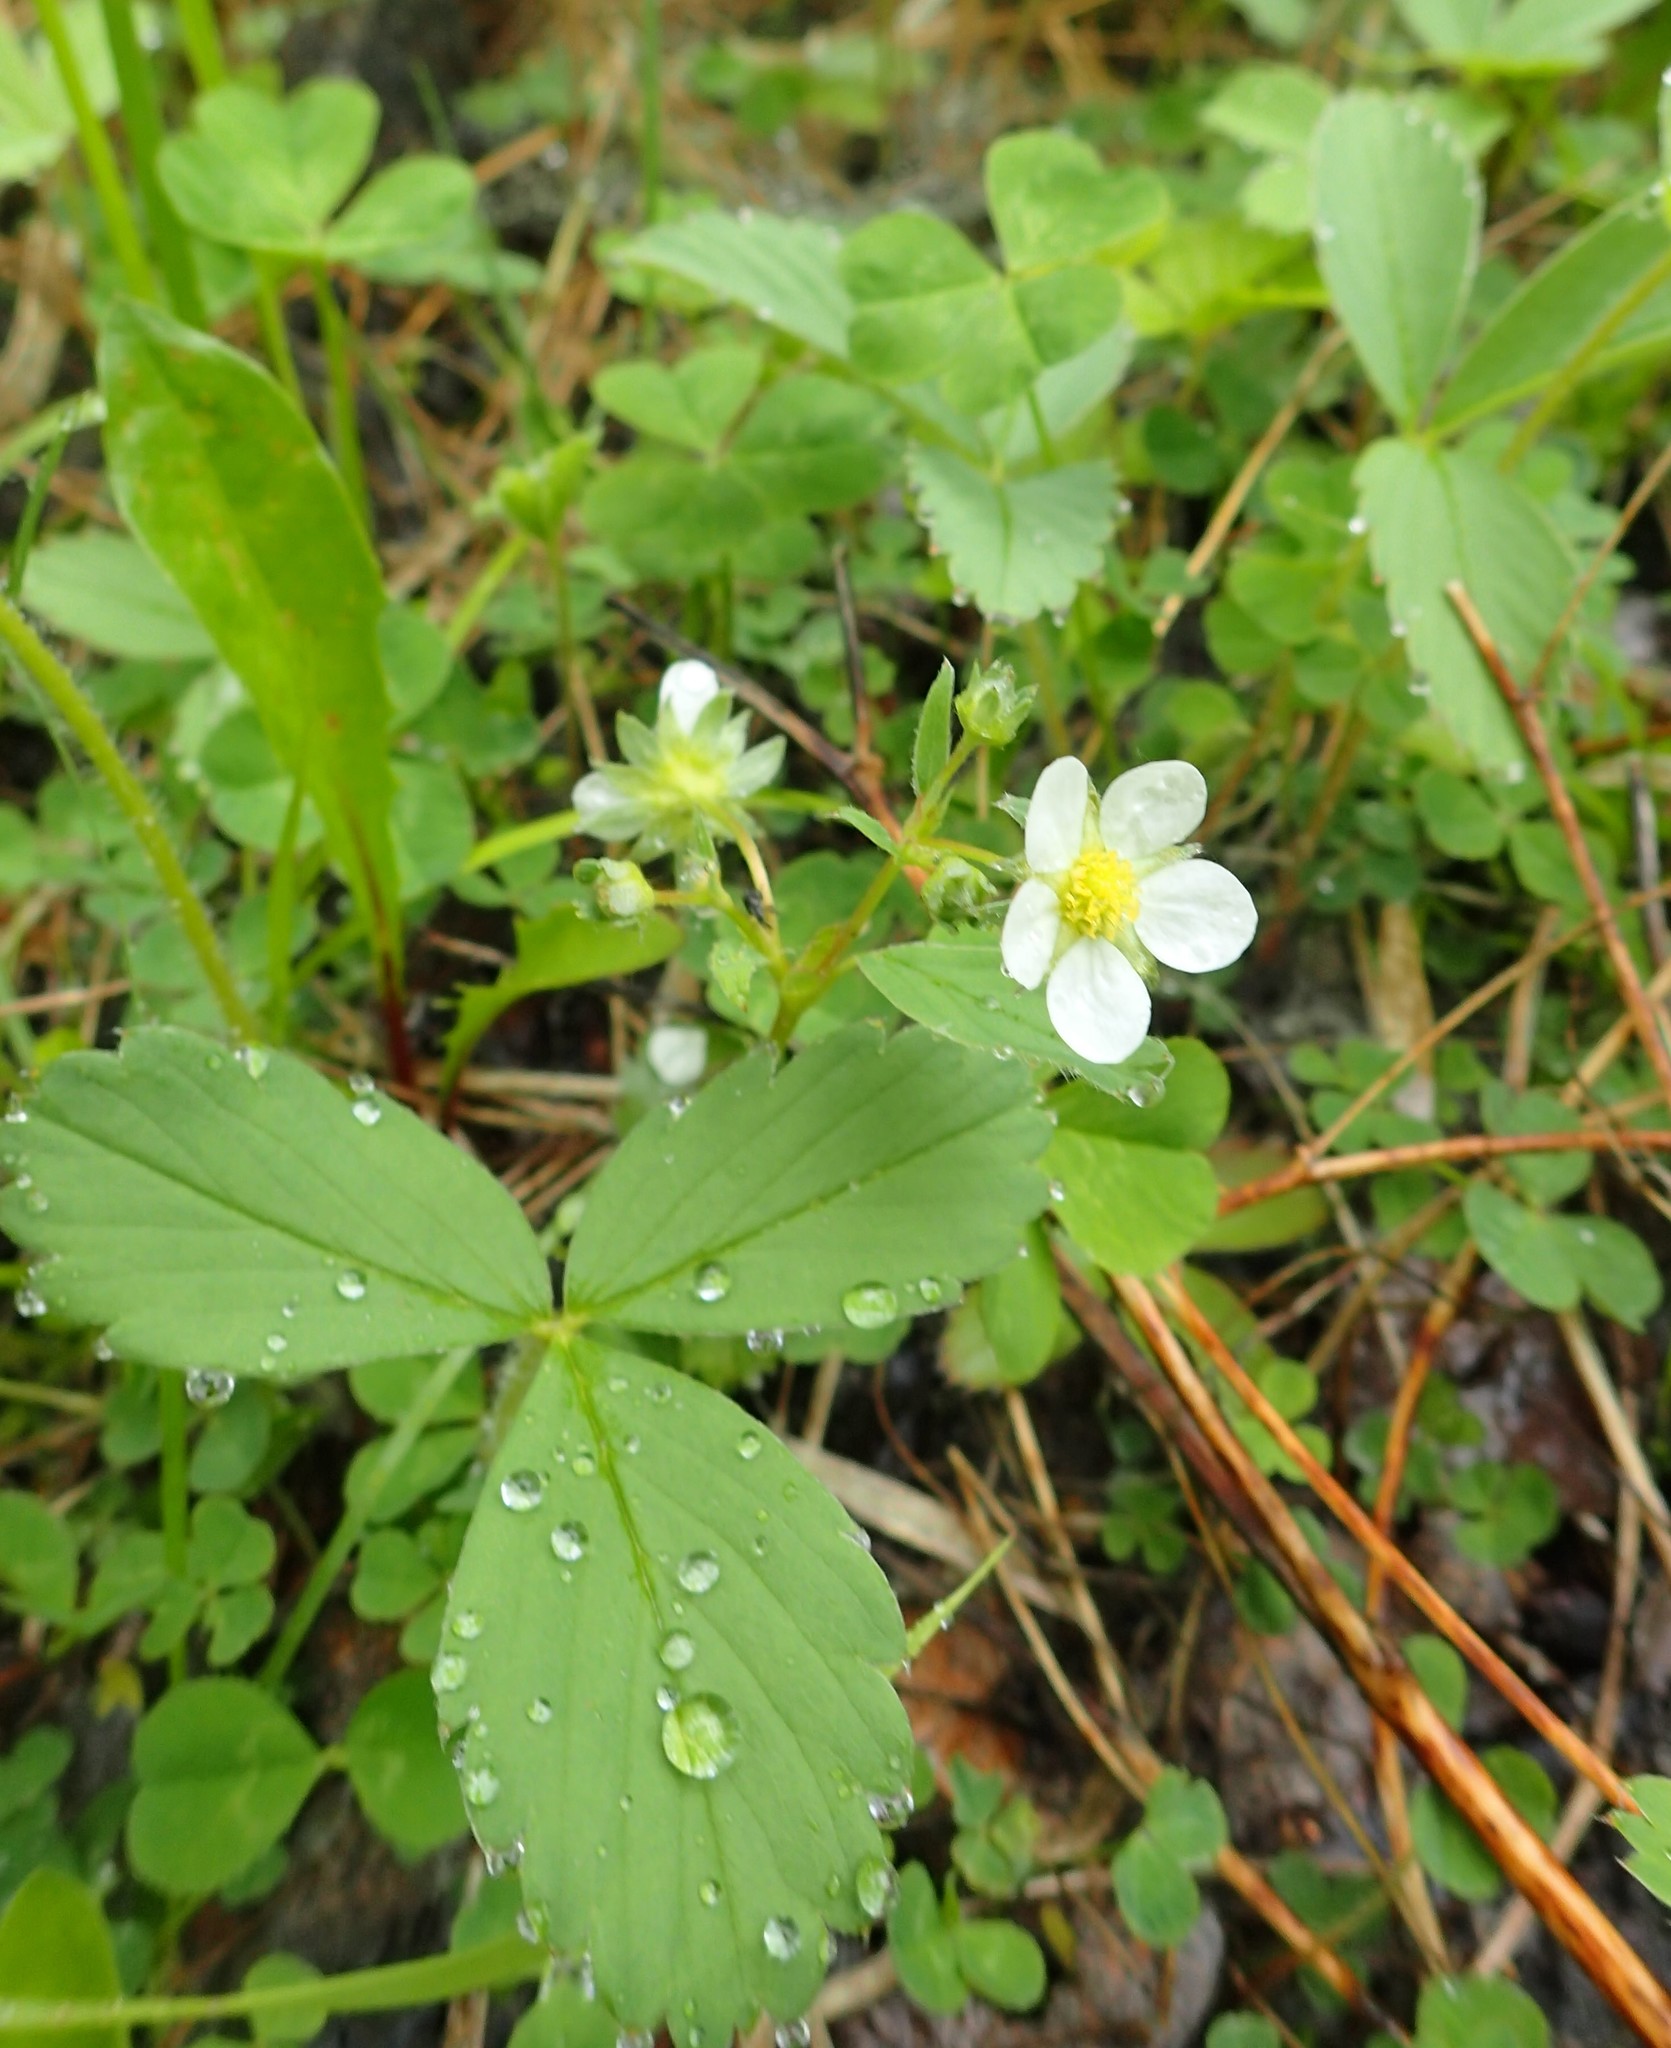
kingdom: Plantae
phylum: Tracheophyta
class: Magnoliopsida
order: Rosales
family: Rosaceae
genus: Fragaria
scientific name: Fragaria virginiana
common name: Thickleaved wild strawberry
